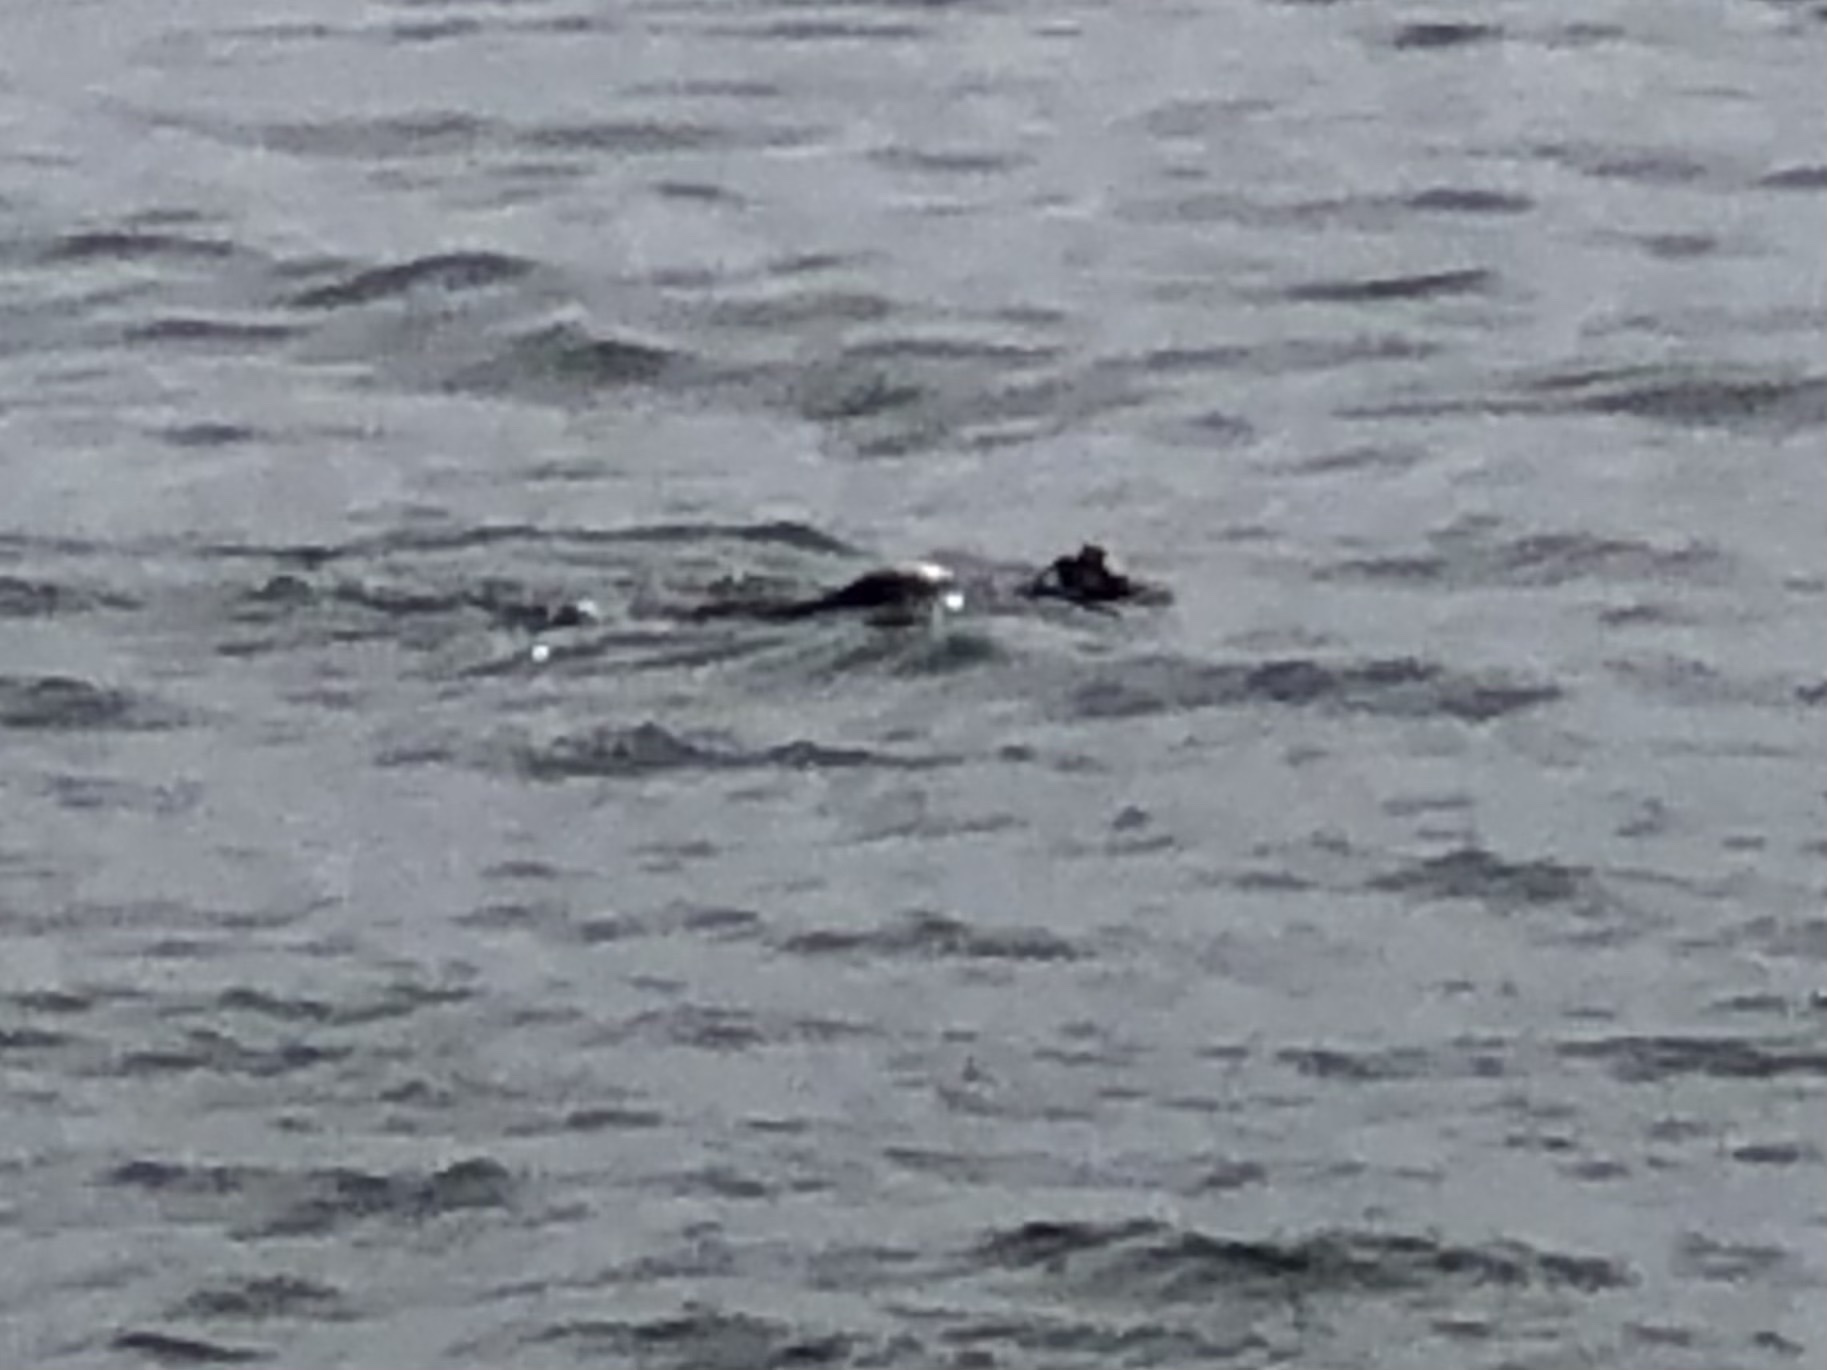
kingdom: Animalia
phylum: Chordata
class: Mammalia
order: Carnivora
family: Mustelidae
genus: Enhydra
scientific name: Enhydra lutris
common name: Sea otter
